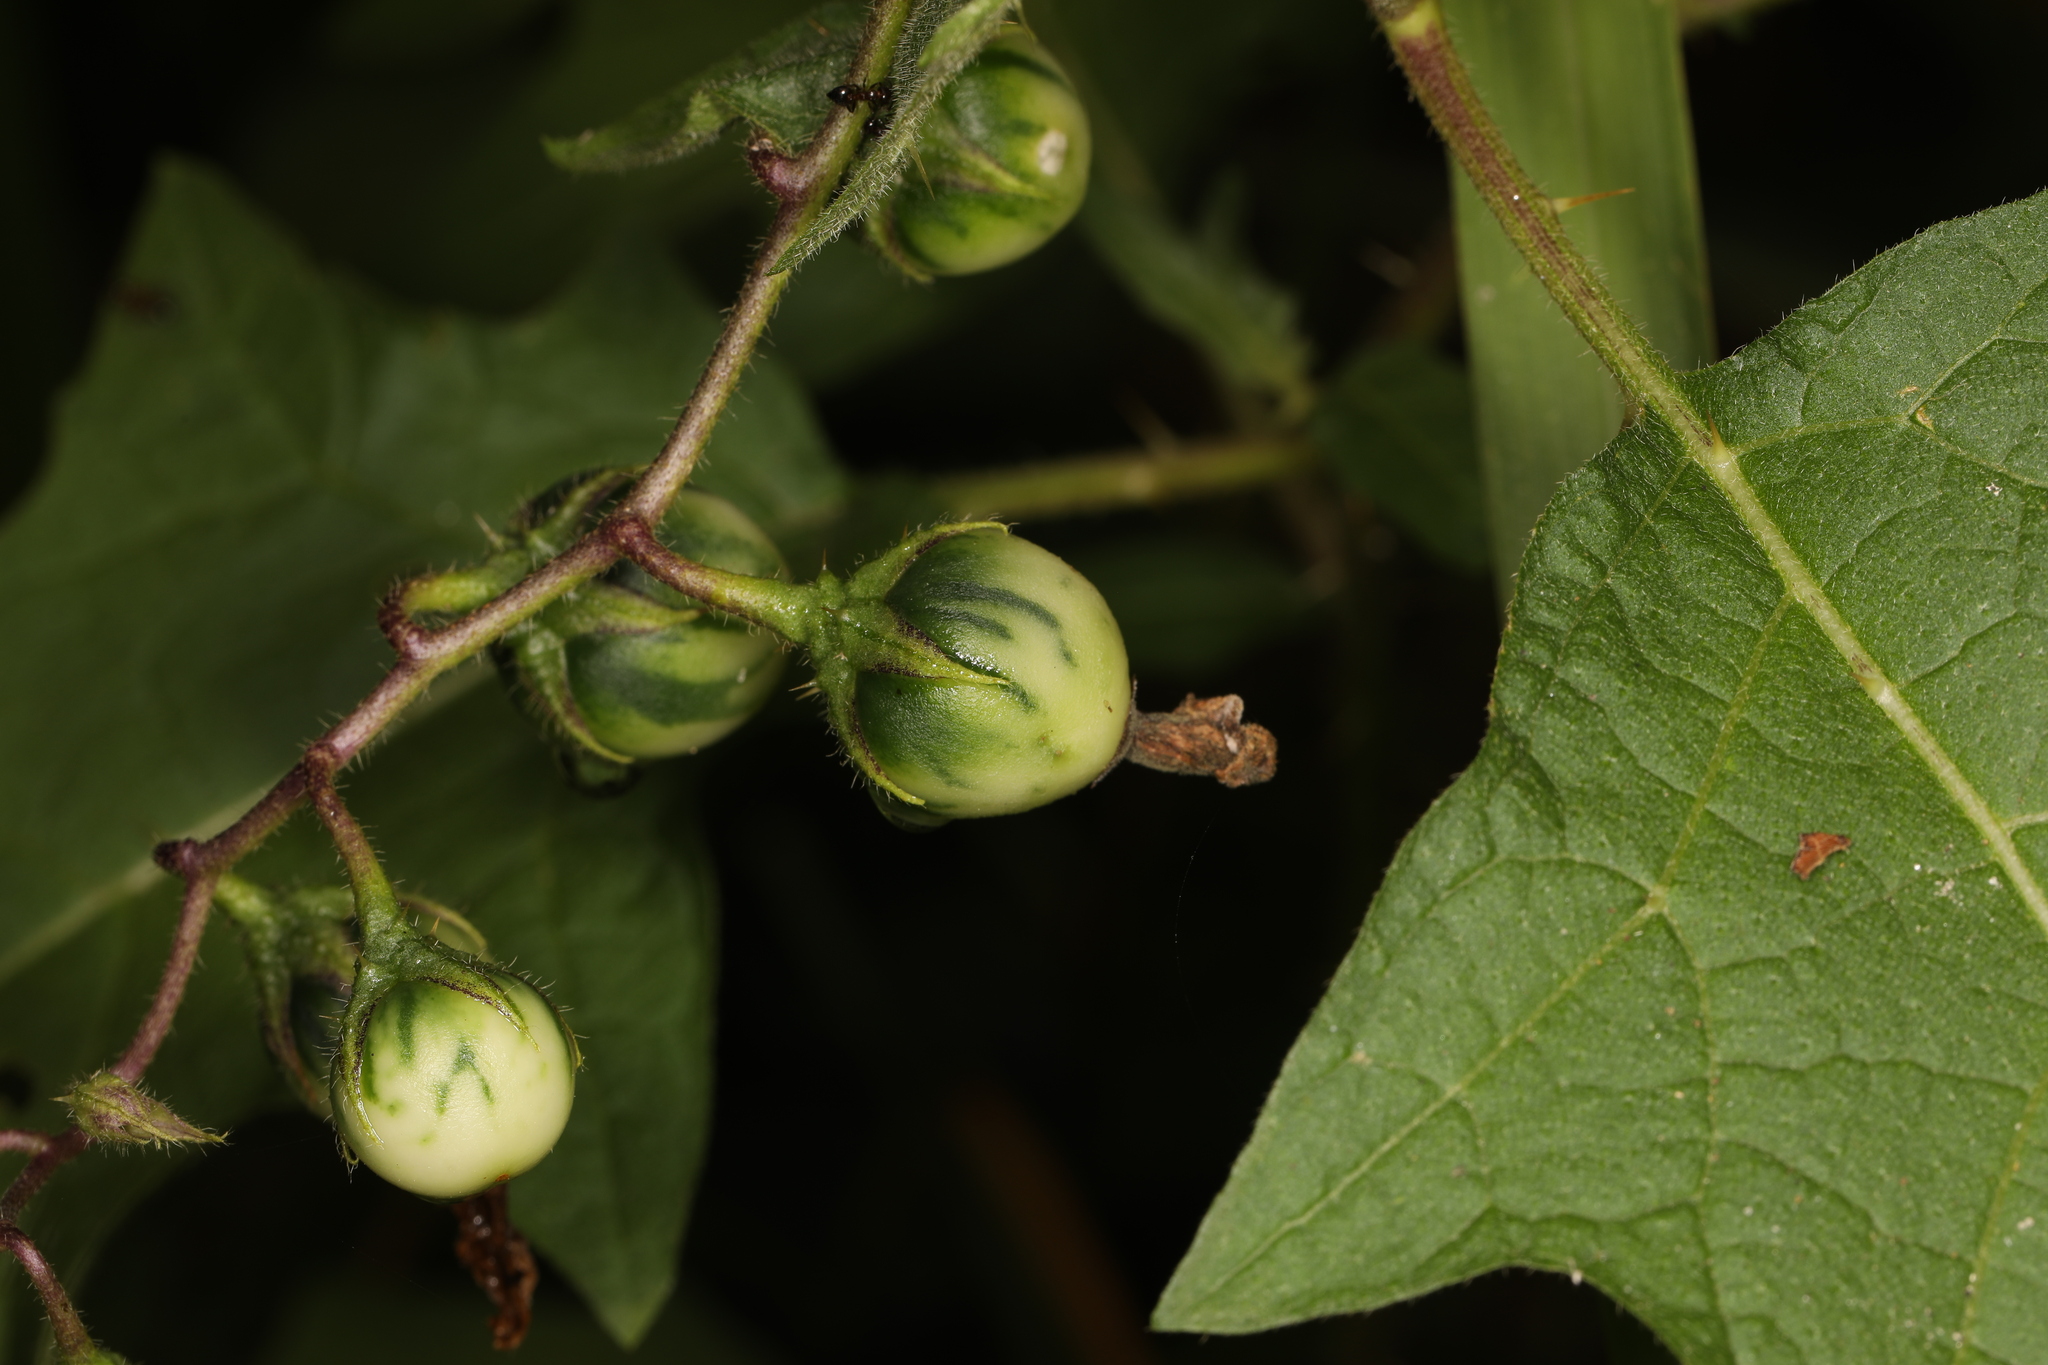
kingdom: Plantae
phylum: Tracheophyta
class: Magnoliopsida
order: Solanales
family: Solanaceae
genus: Solanum
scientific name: Solanum carolinense
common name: Horse-nettle
